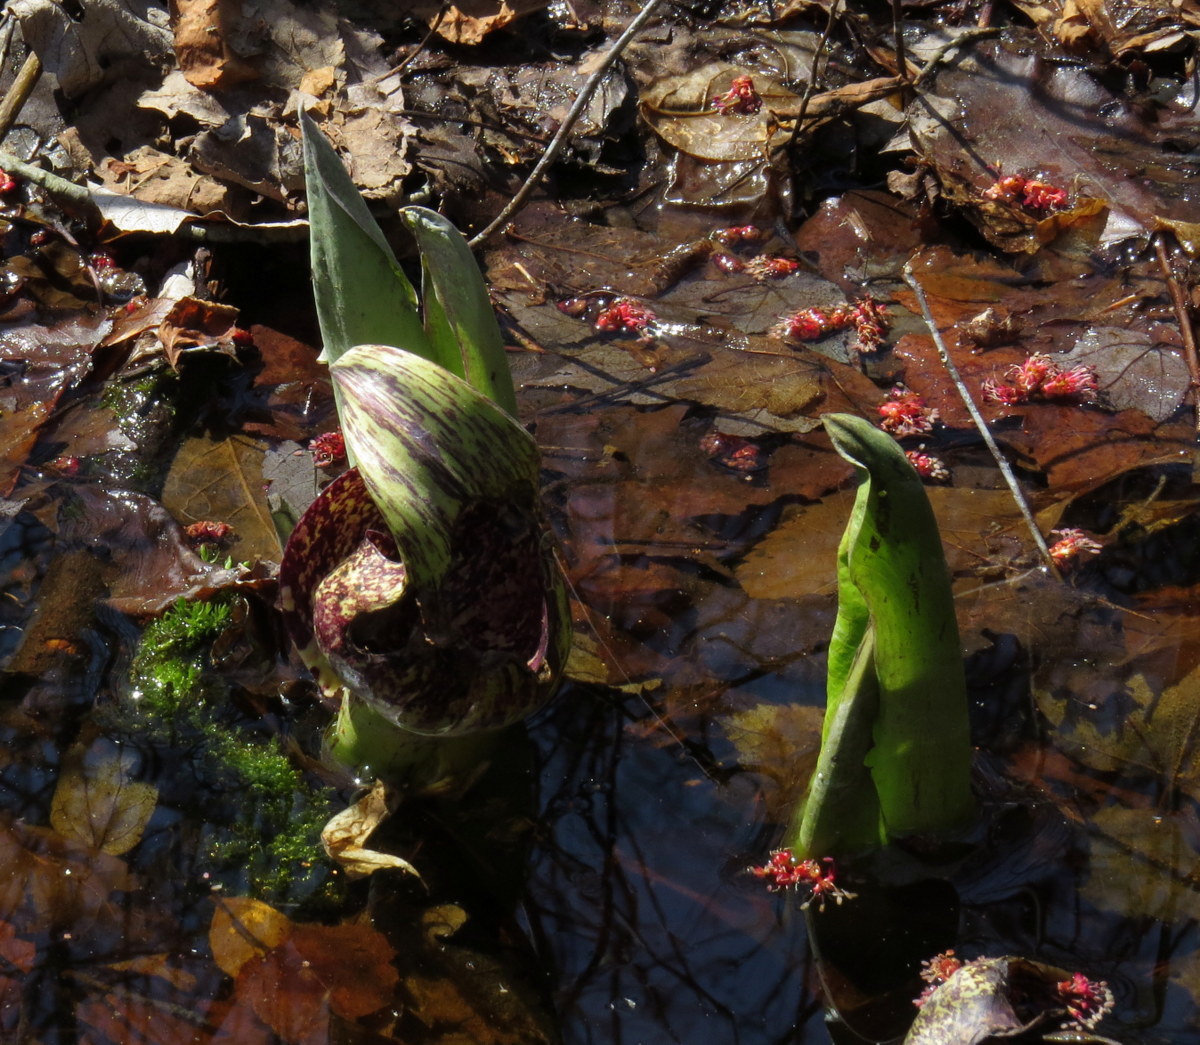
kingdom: Plantae
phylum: Tracheophyta
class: Liliopsida
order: Alismatales
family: Araceae
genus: Symplocarpus
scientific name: Symplocarpus foetidus
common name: Eastern skunk cabbage
